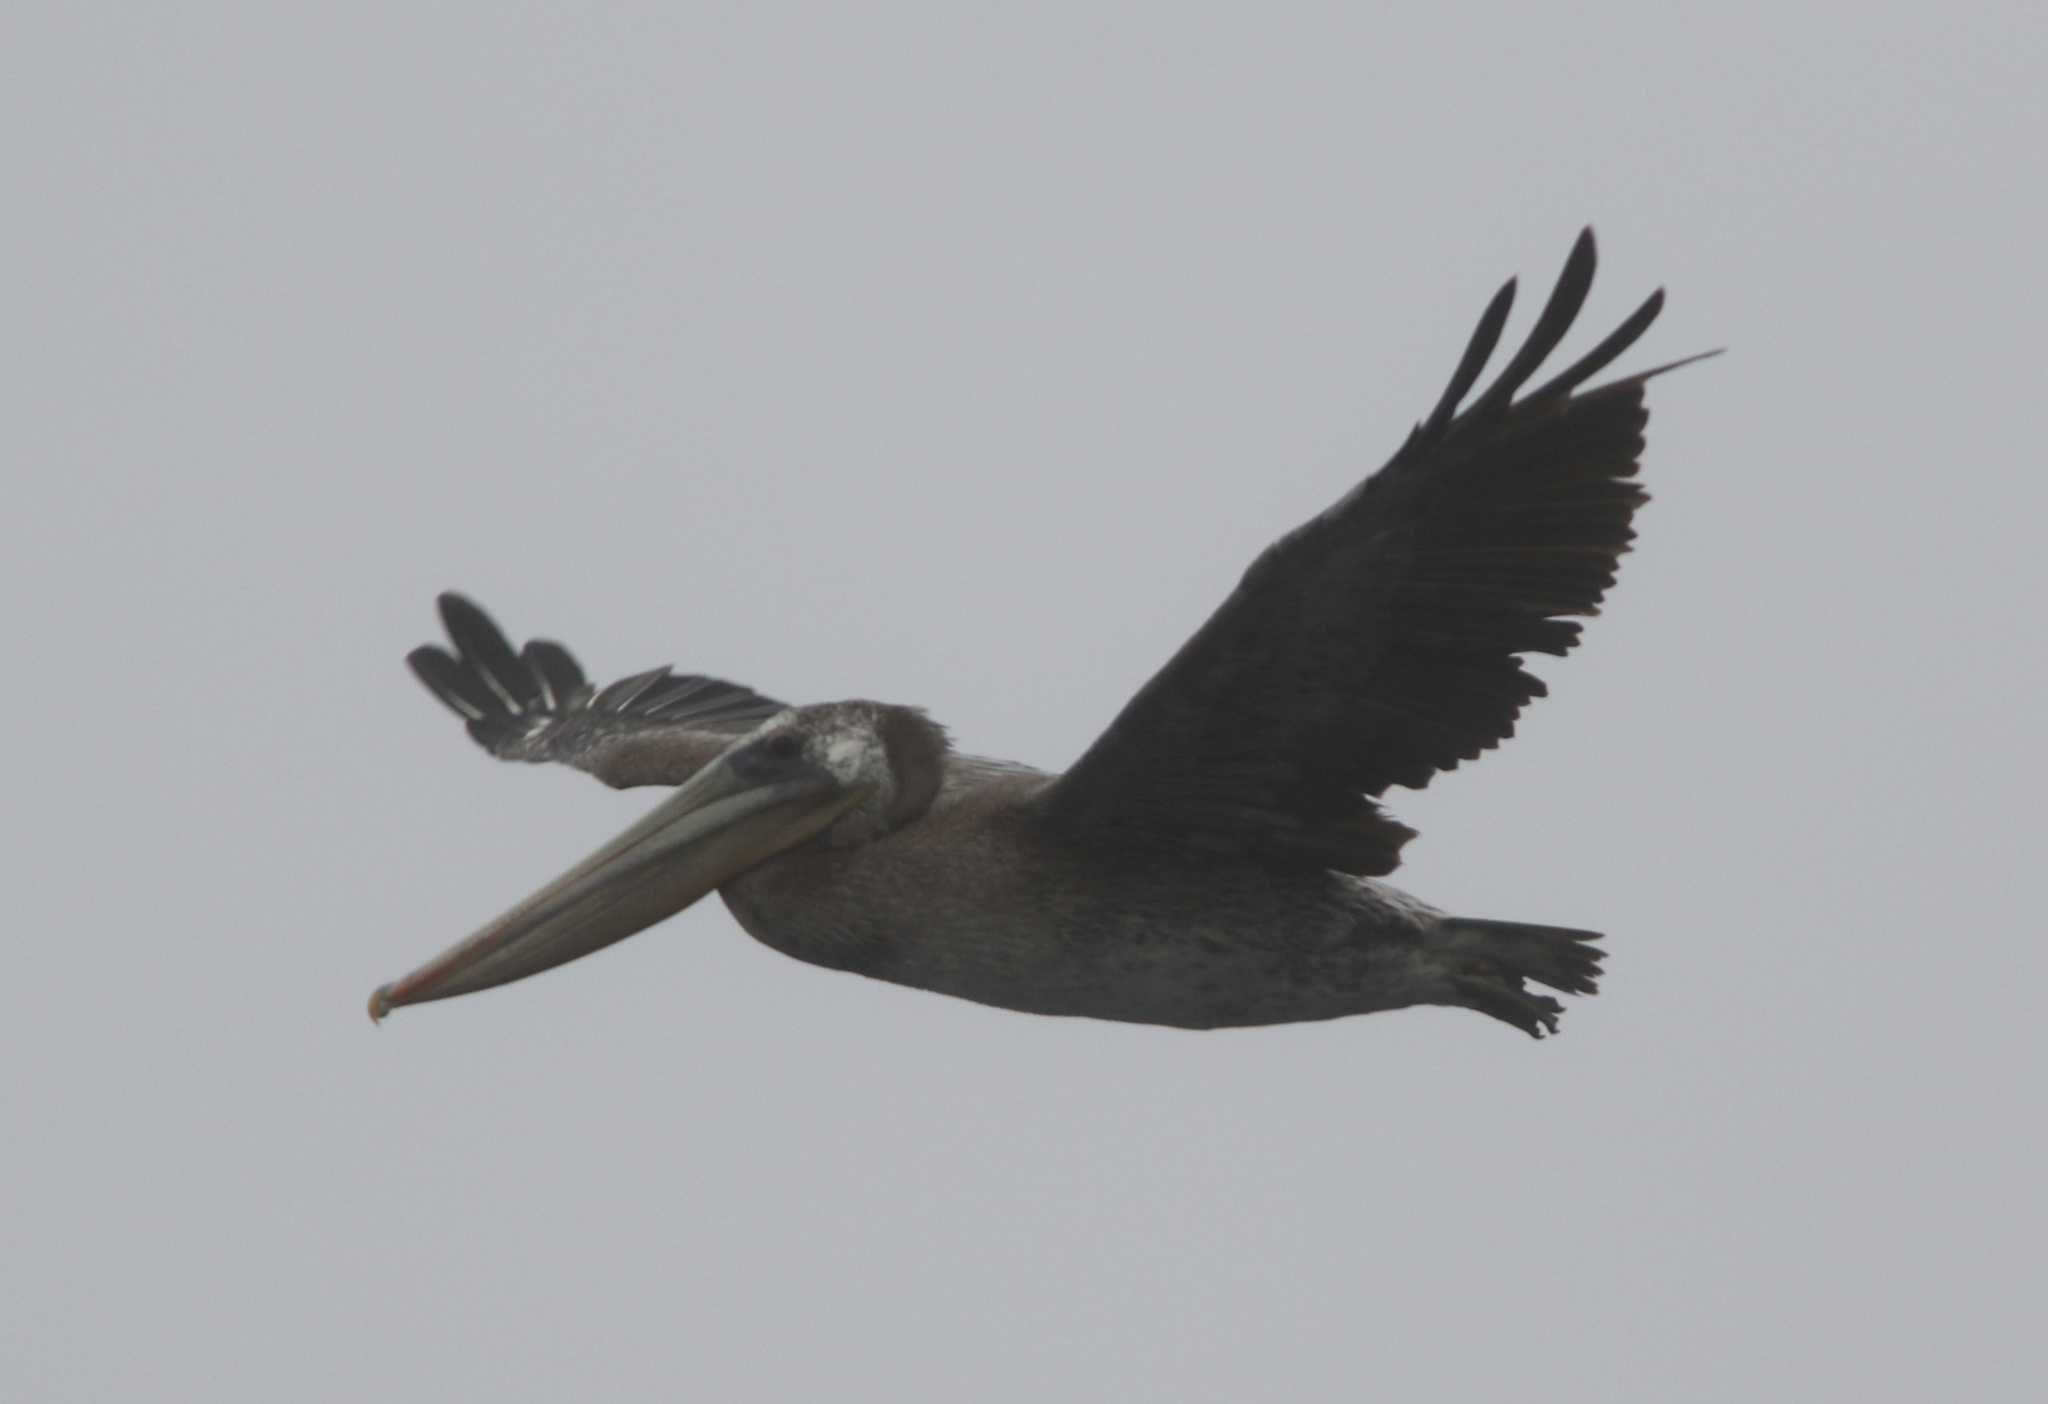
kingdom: Animalia
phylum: Chordata
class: Aves
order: Pelecaniformes
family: Pelecanidae
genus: Pelecanus
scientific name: Pelecanus occidentalis
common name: Brown pelican
